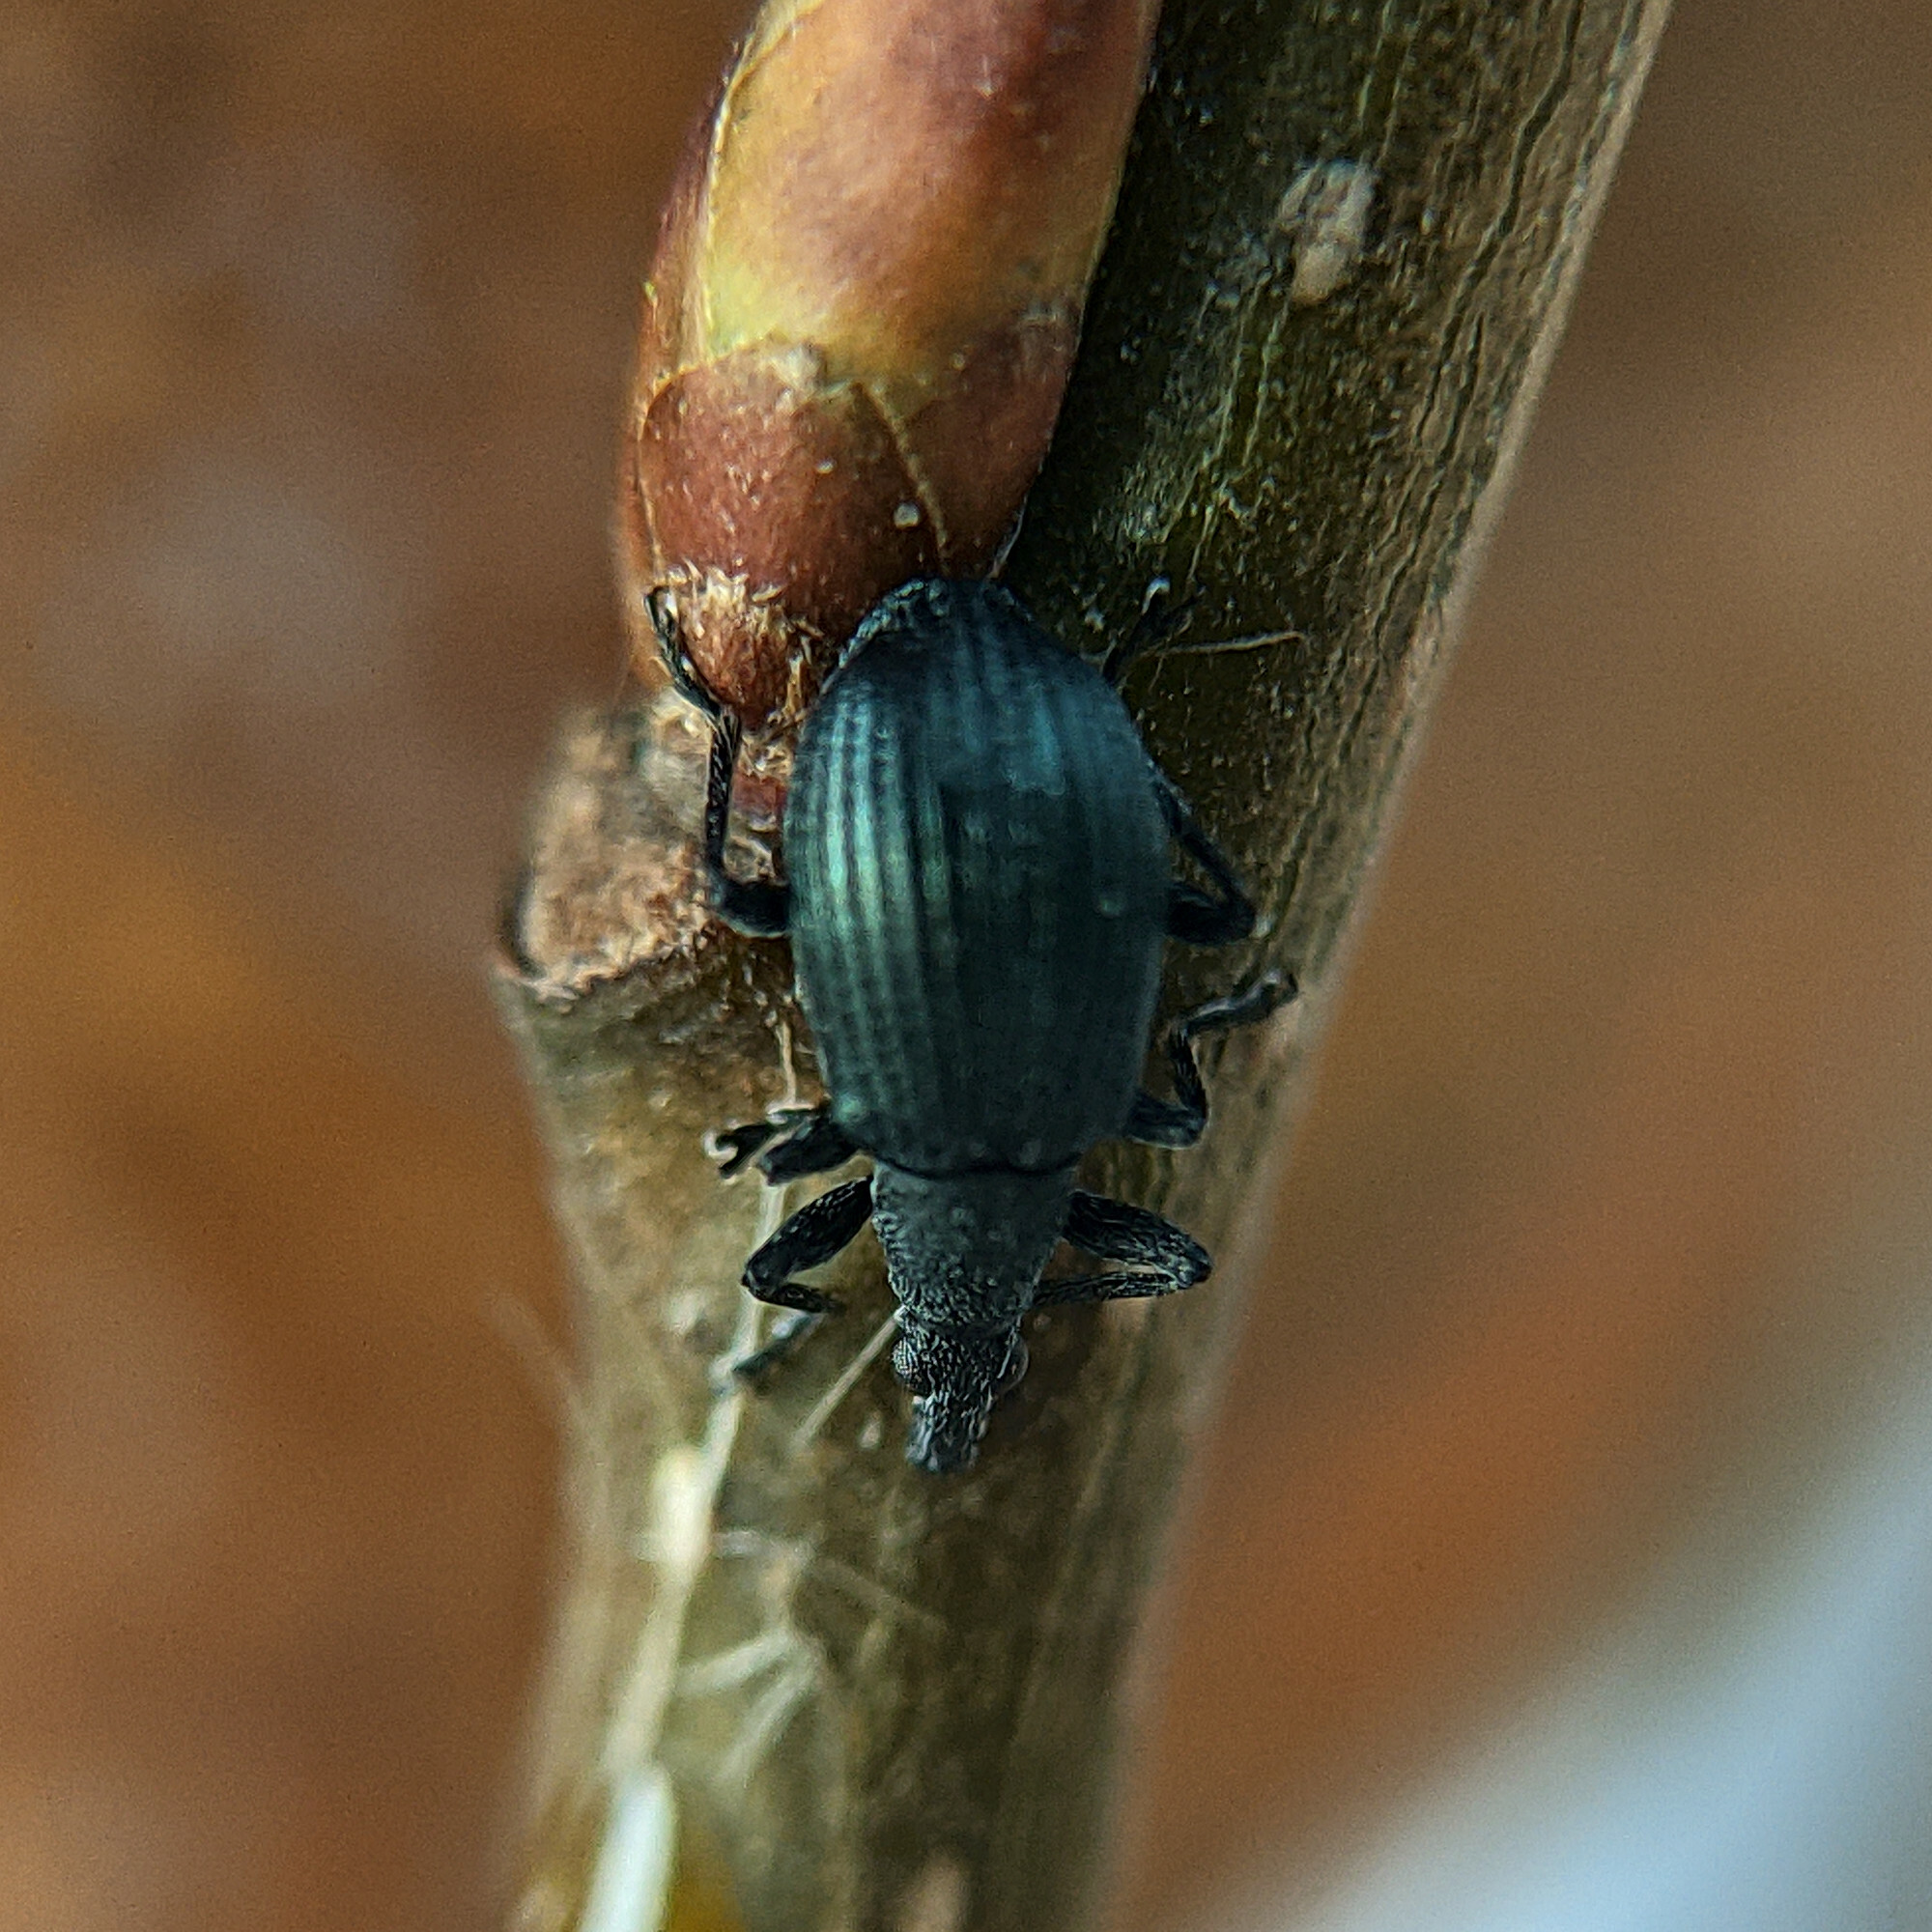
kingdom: Animalia
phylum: Arthropoda
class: Insecta
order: Coleoptera
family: Apionidae
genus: Oxystoma
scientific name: Oxystoma pomonae
